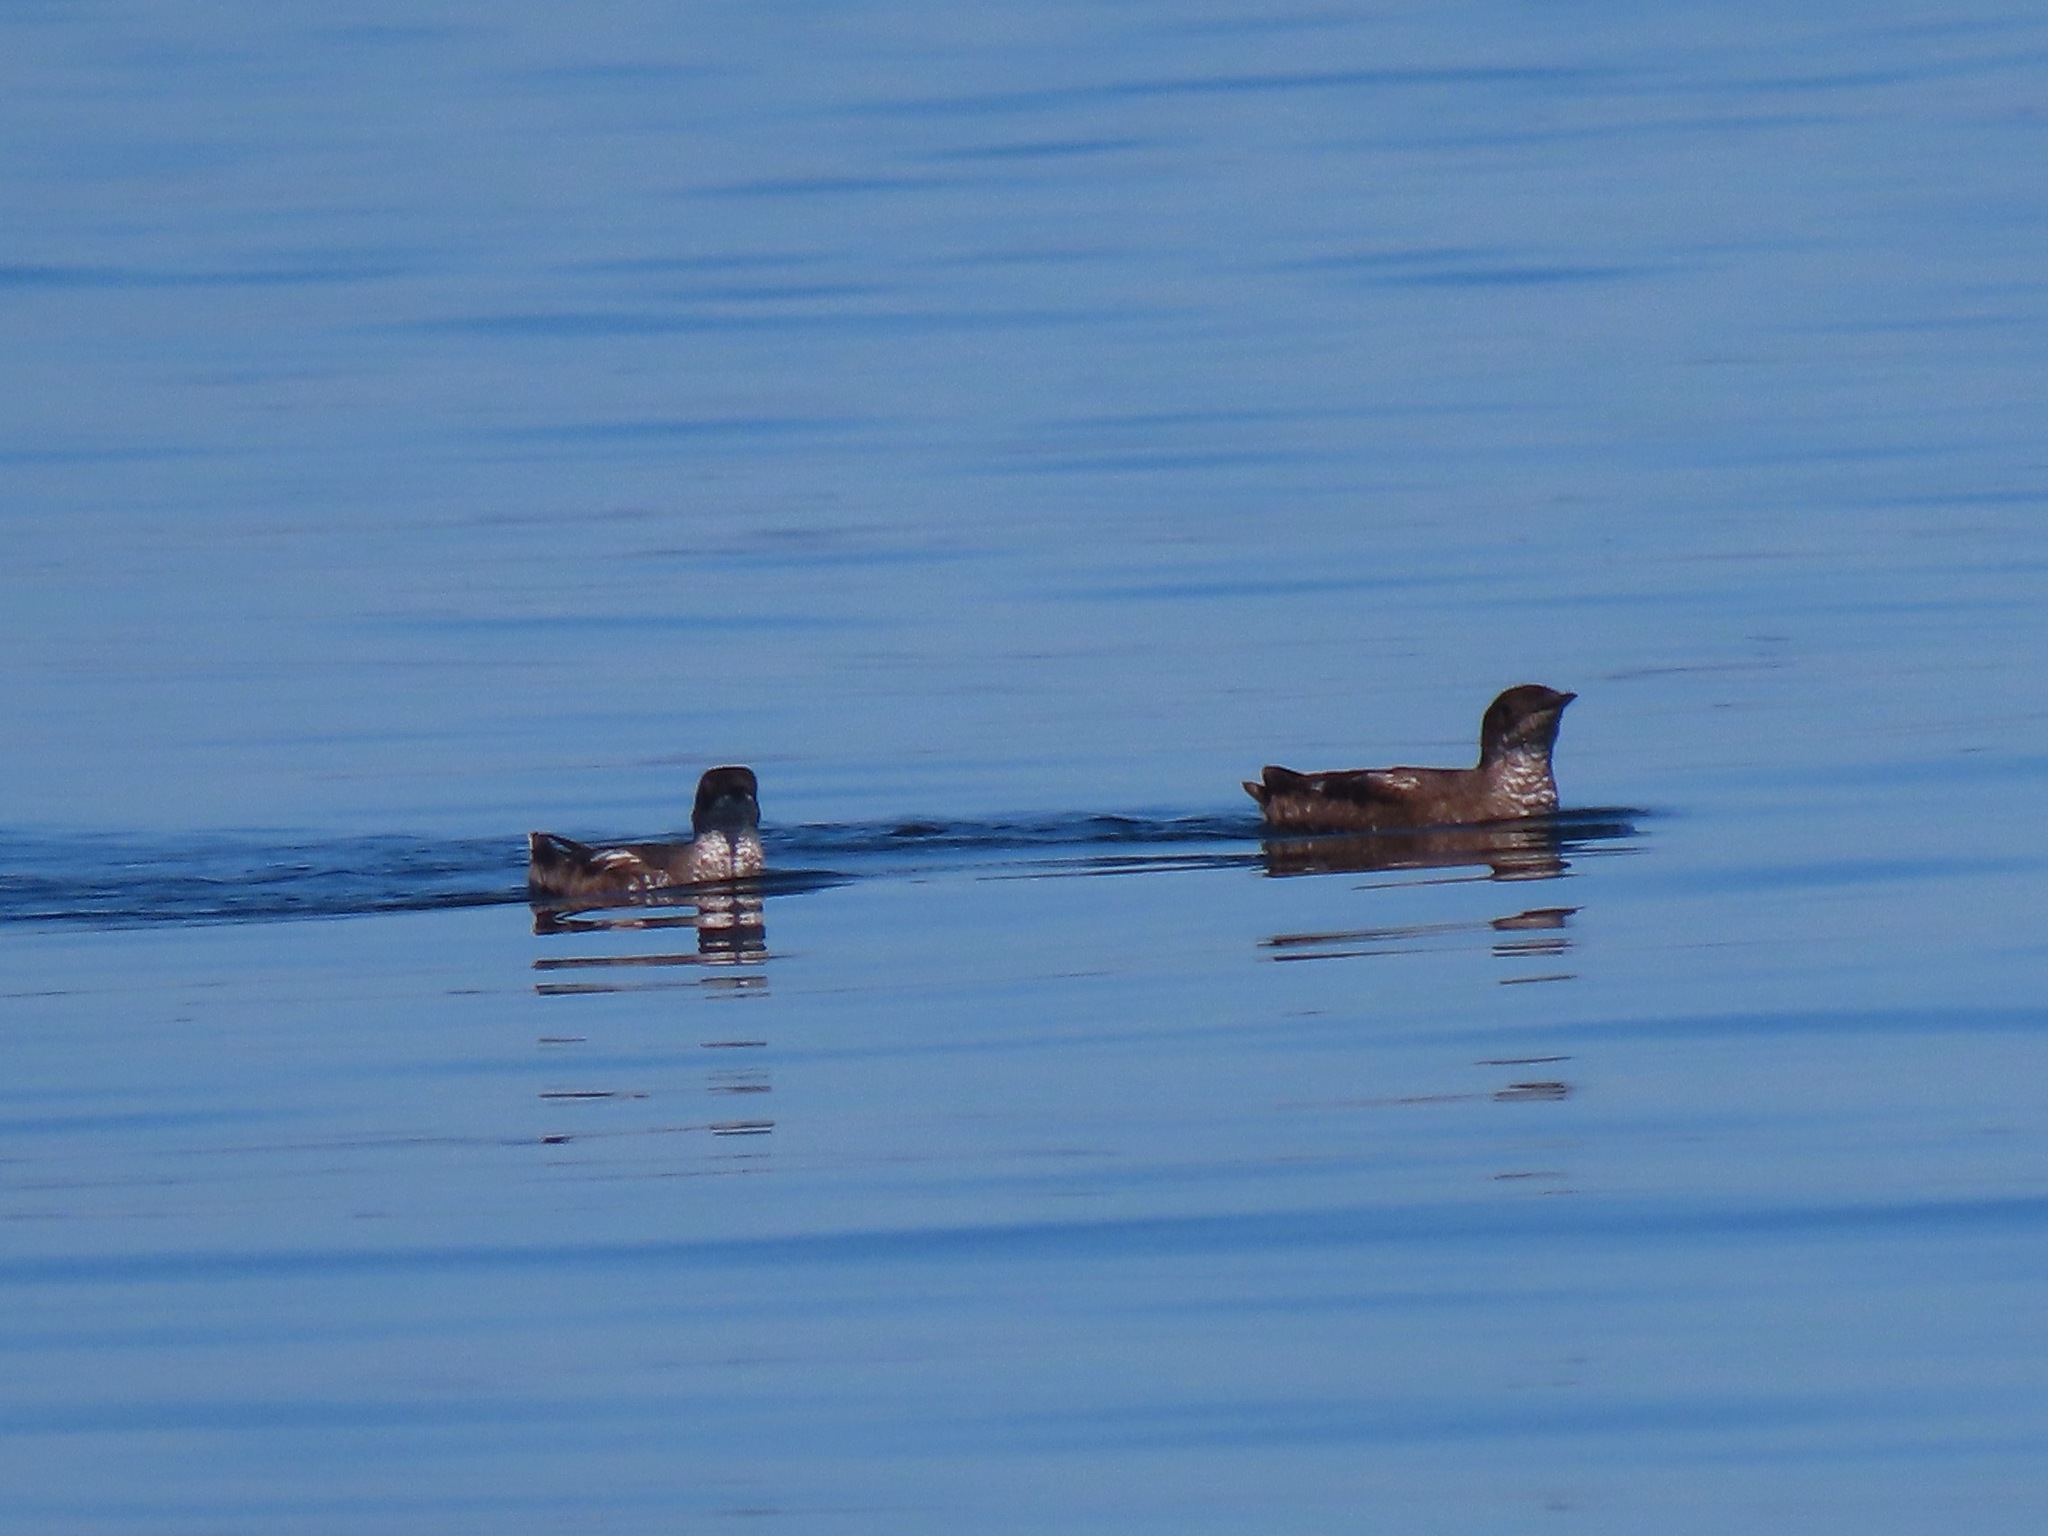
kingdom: Animalia
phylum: Chordata
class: Aves
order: Charadriiformes
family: Alcidae
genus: Brachyramphus
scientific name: Brachyramphus marmoratus
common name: Marbled murrelet
